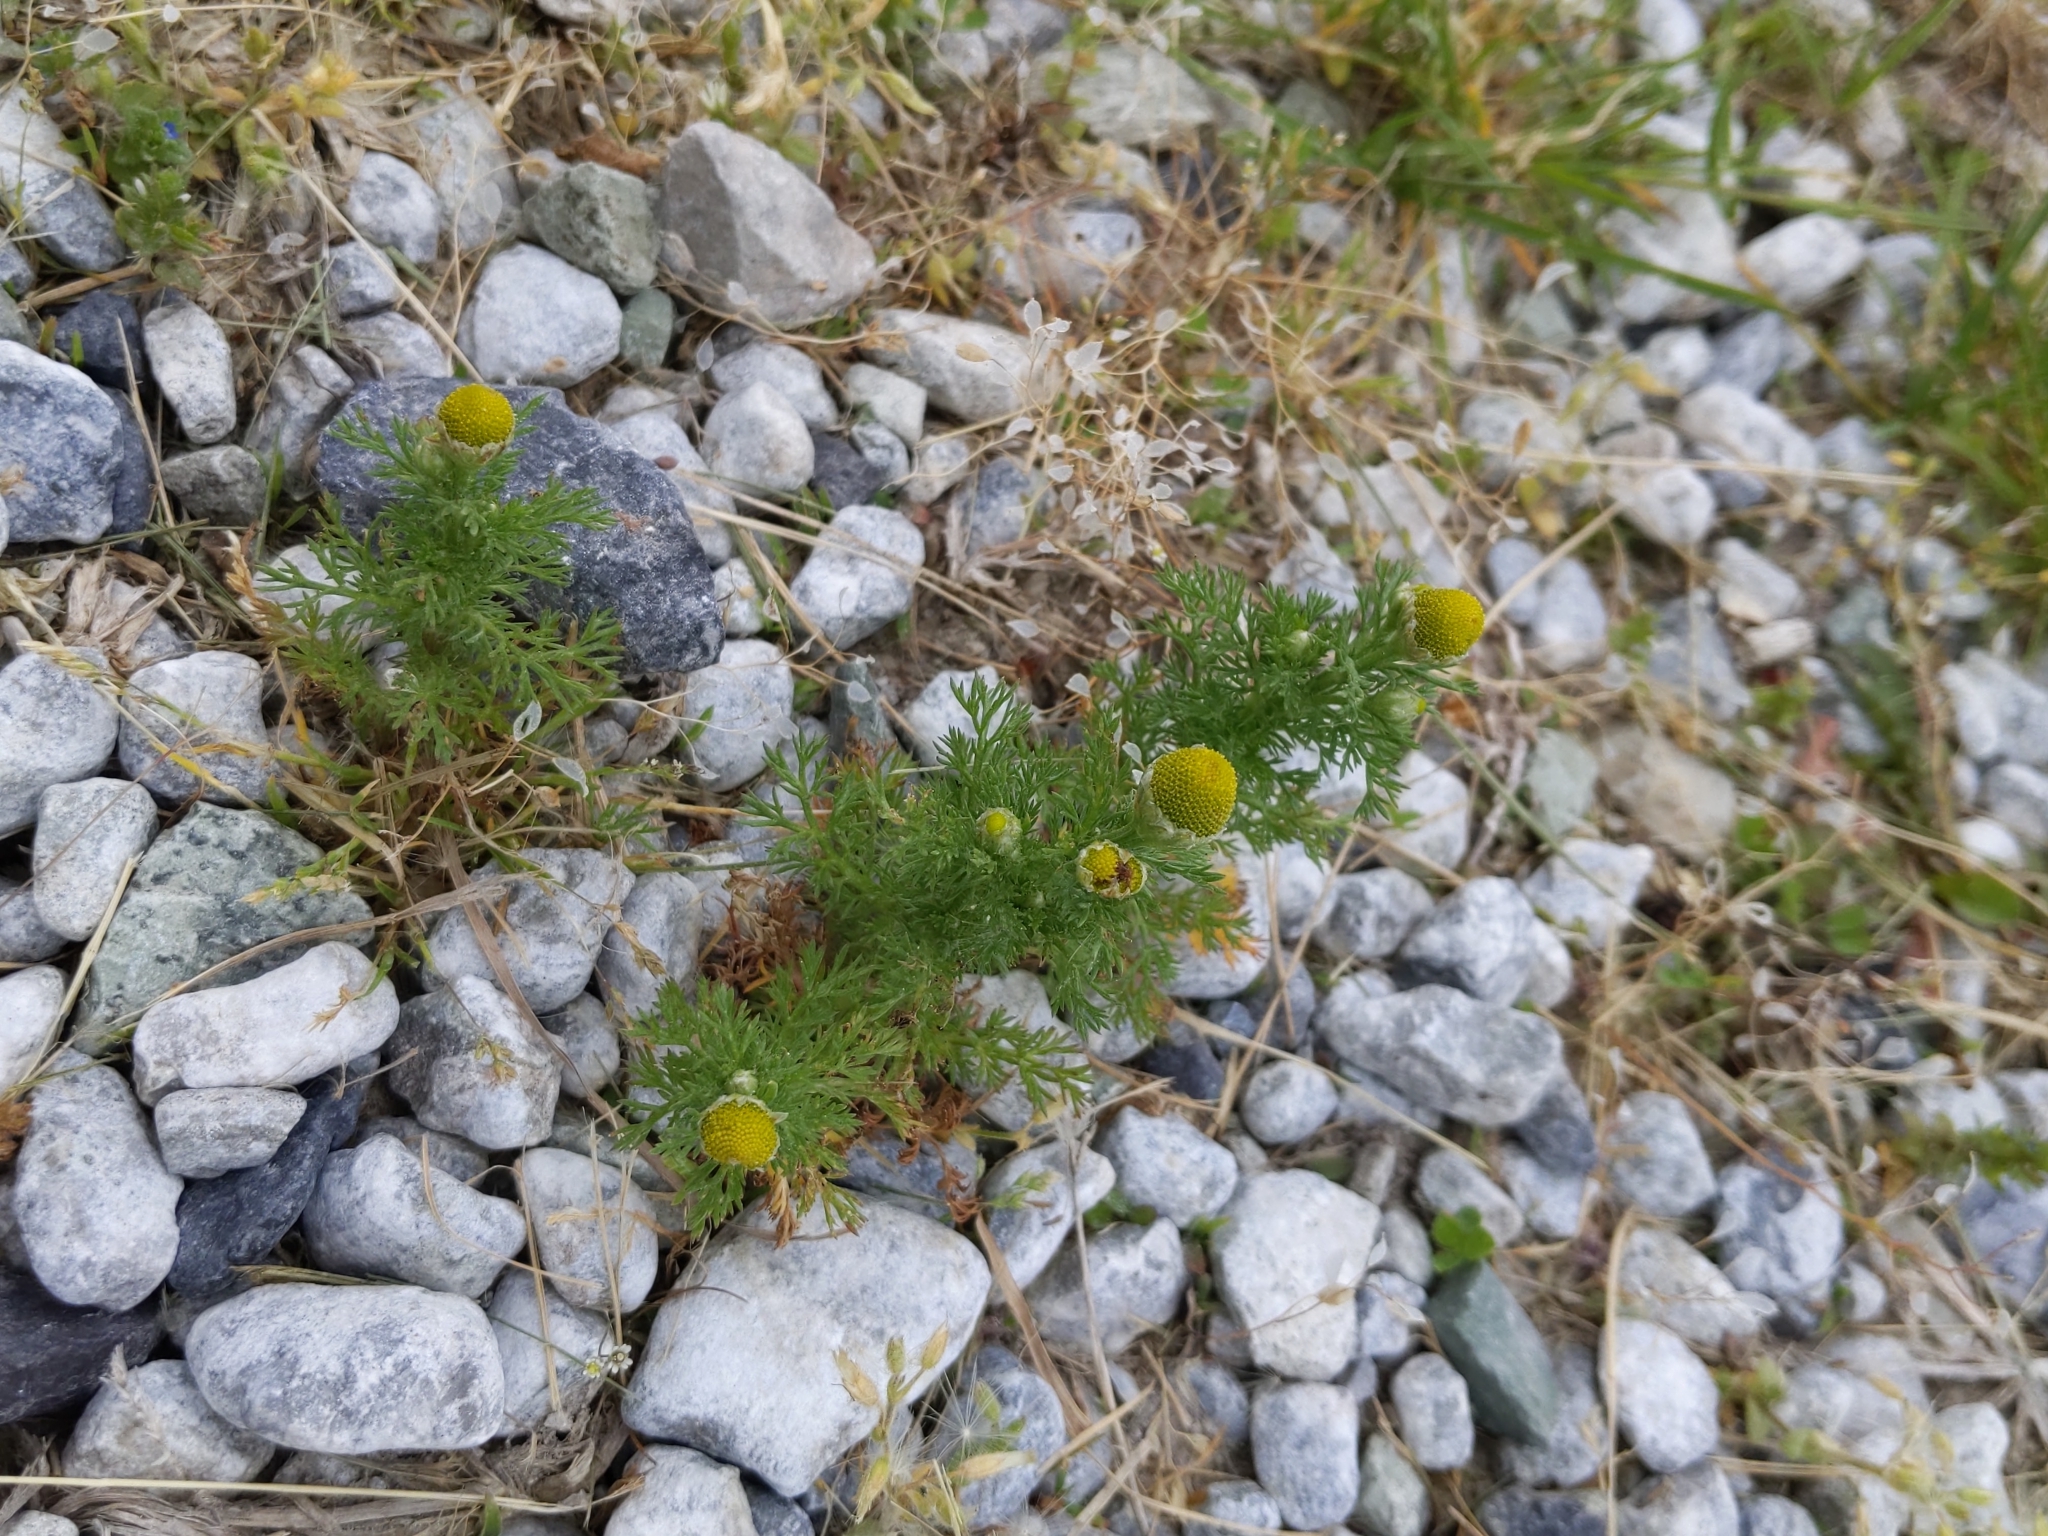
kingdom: Plantae
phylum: Tracheophyta
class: Magnoliopsida
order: Asterales
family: Asteraceae
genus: Matricaria
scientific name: Matricaria discoidea
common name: Disc mayweed
